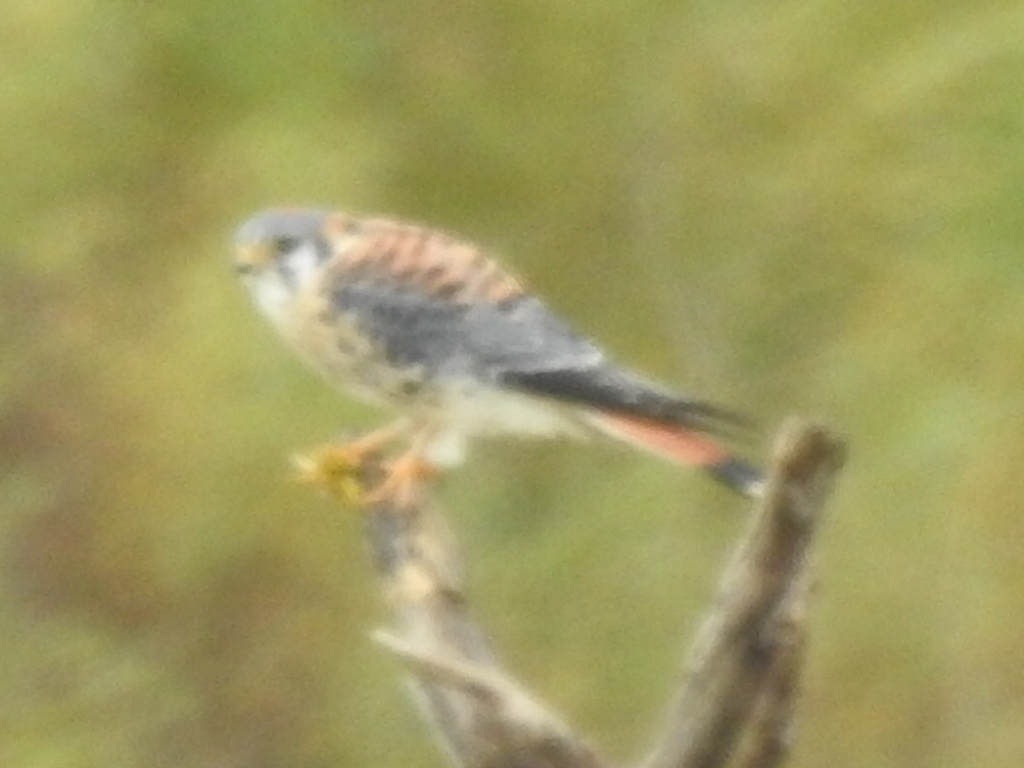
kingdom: Animalia
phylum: Chordata
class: Aves
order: Falconiformes
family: Falconidae
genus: Falco
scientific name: Falco sparverius
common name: American kestrel
